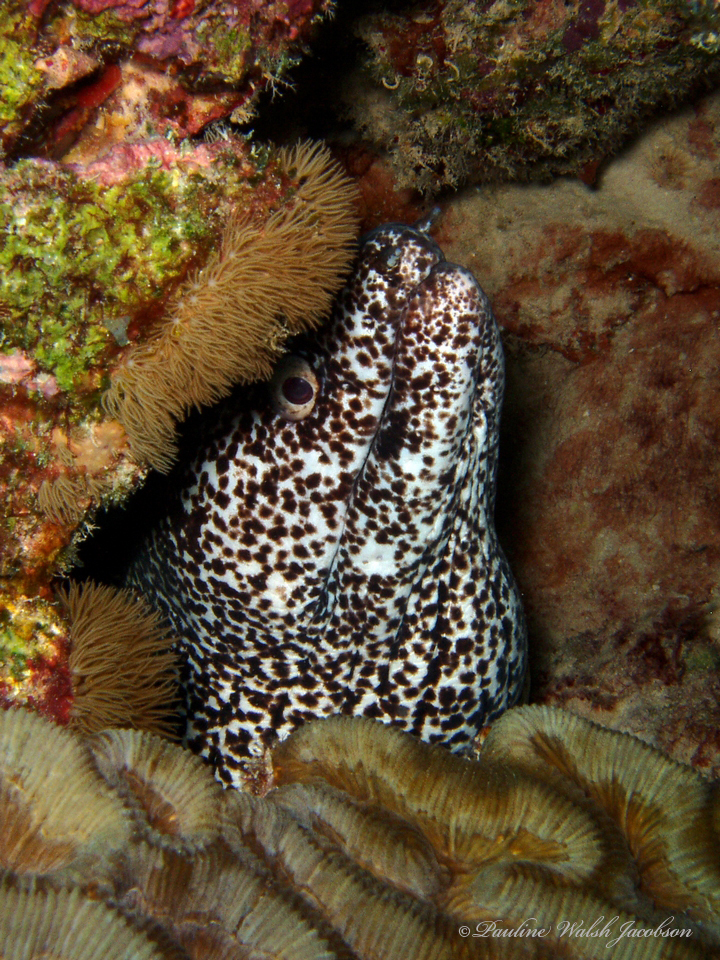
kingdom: Animalia
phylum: Chordata
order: Anguilliformes
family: Muraenidae
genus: Gymnothorax
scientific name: Gymnothorax moringa
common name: Spotted moray
